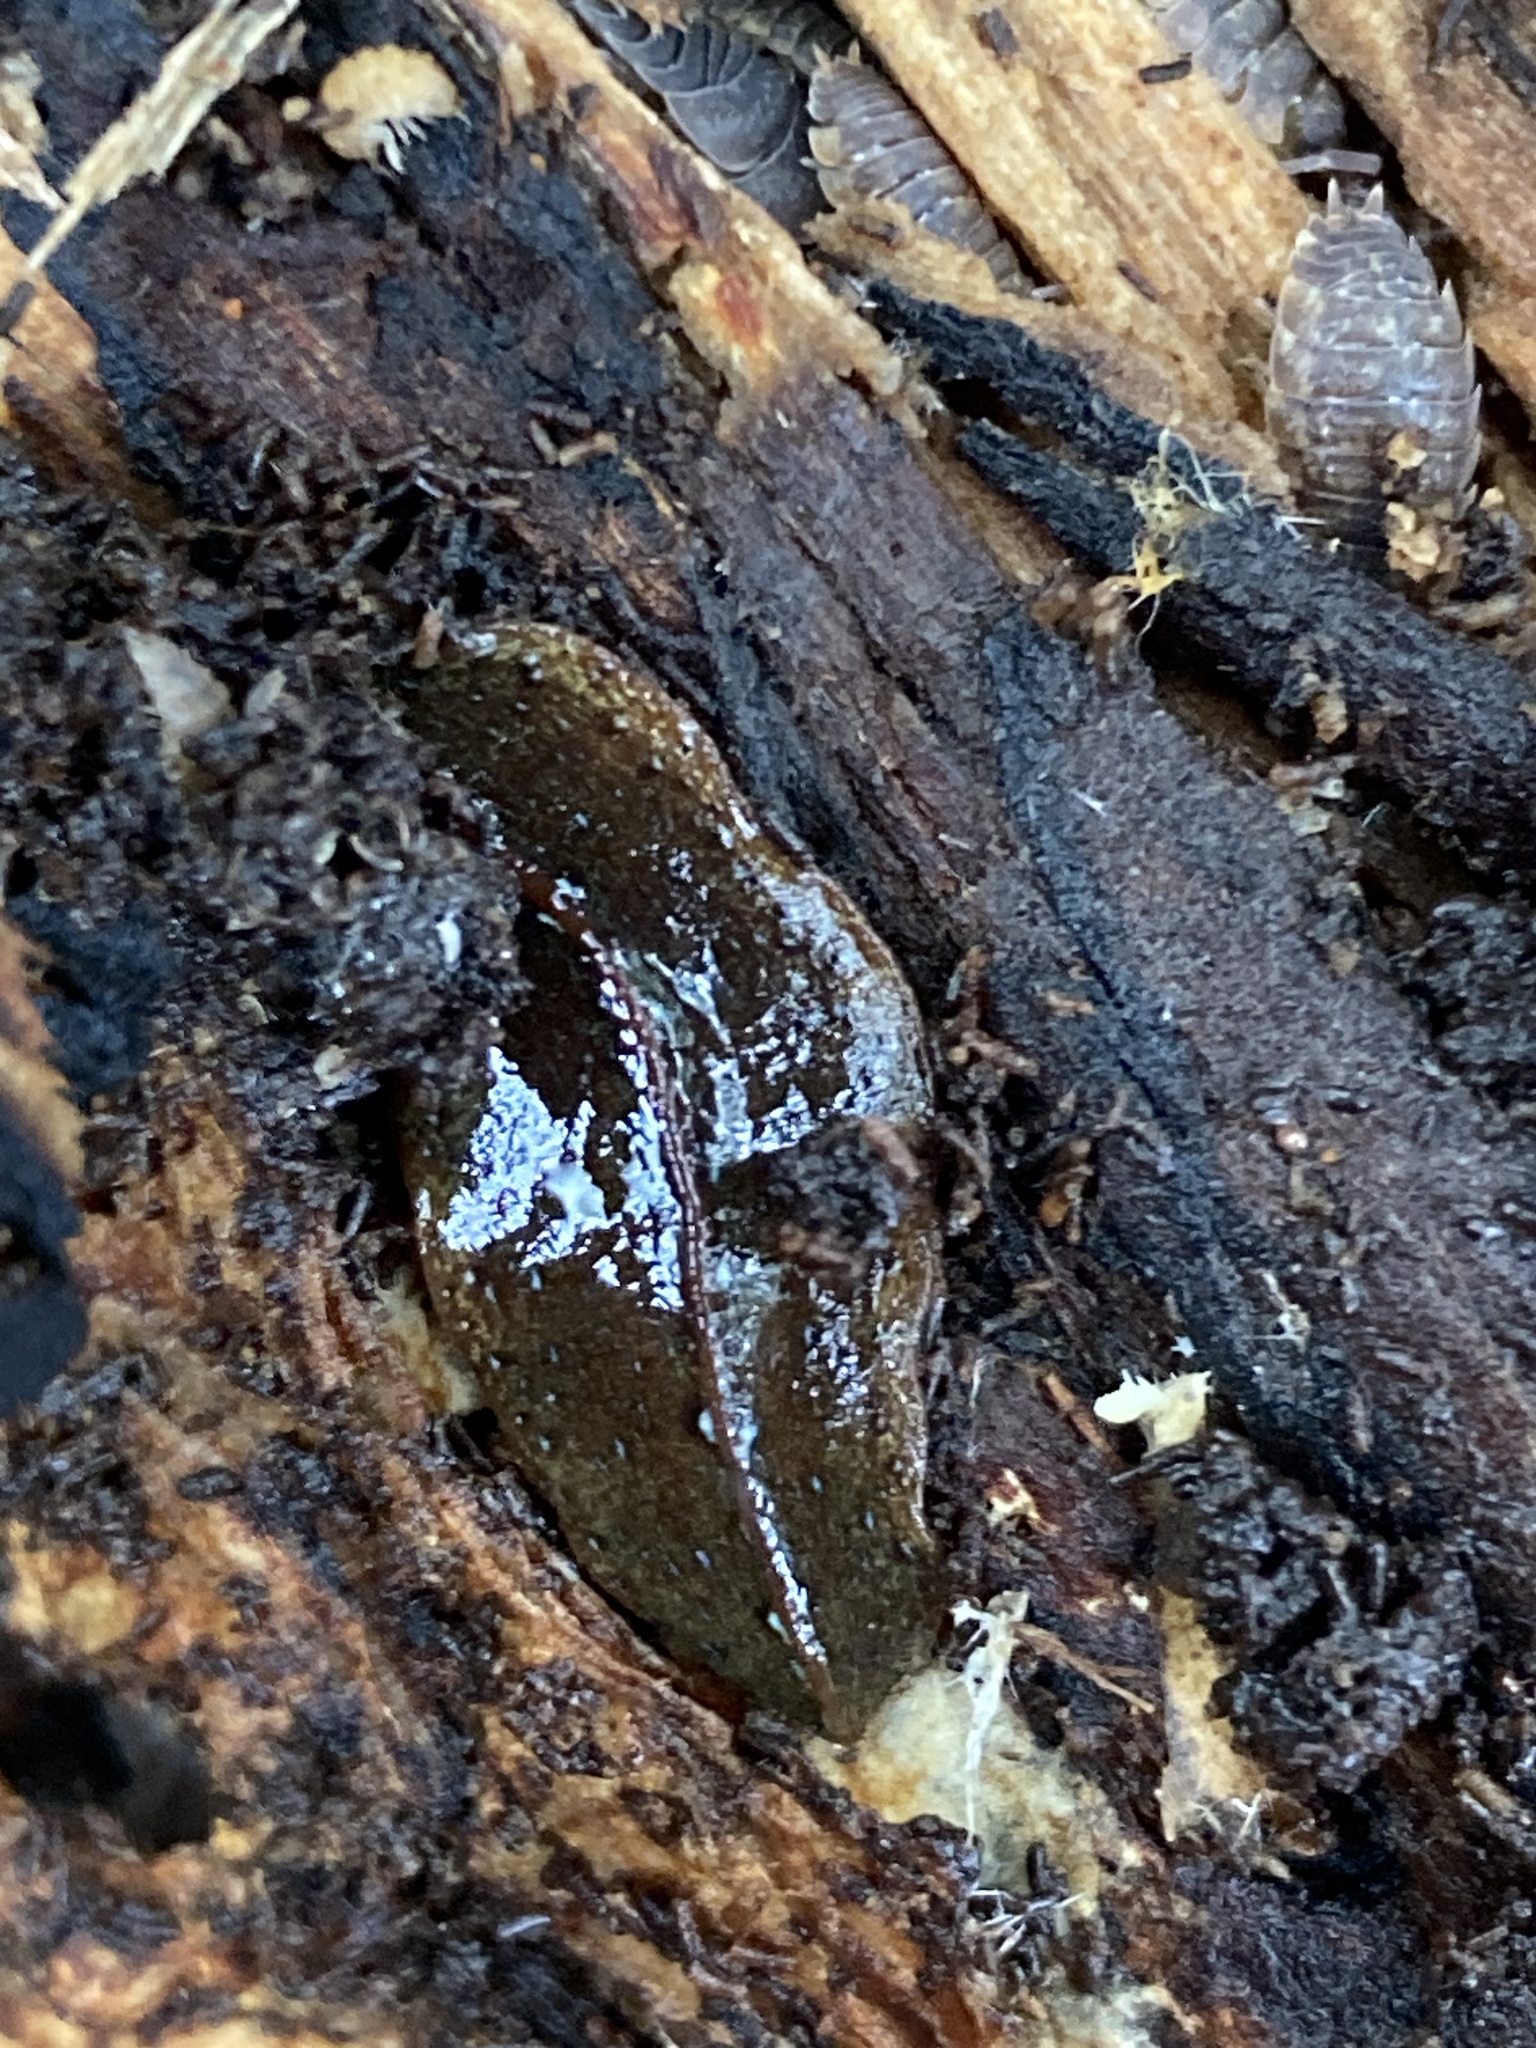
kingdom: Animalia
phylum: Platyhelminthes
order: Tricladida
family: Geoplanidae
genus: Newzealandia
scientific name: Newzealandia graffii
